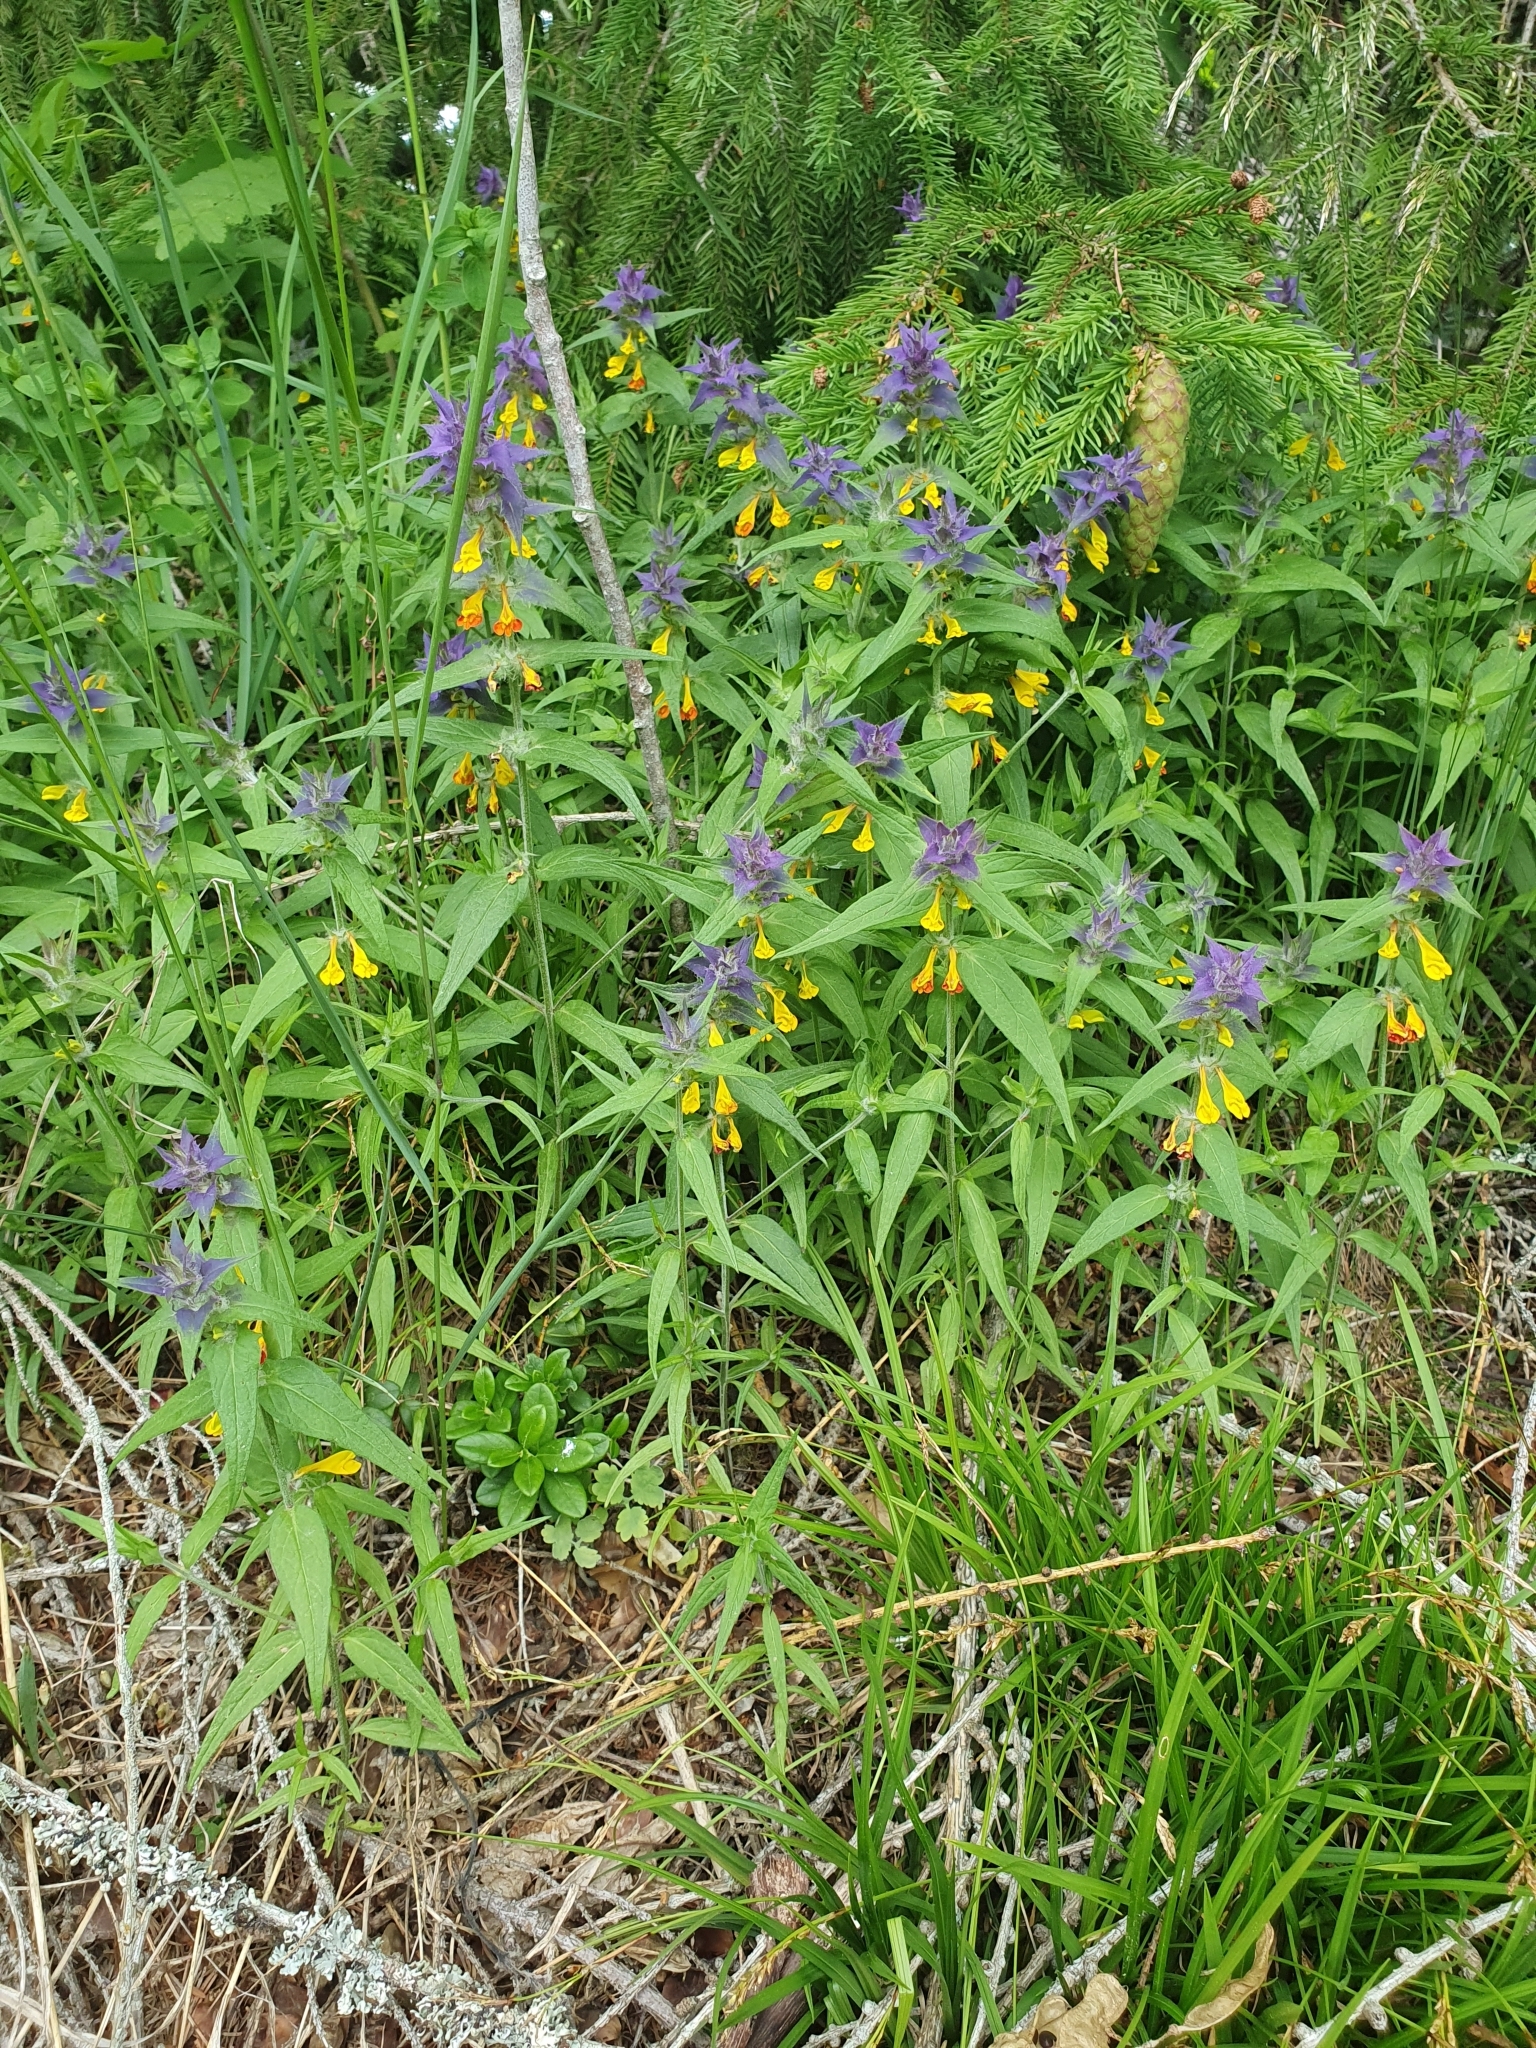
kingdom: Plantae
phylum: Tracheophyta
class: Magnoliopsida
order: Lamiales
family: Orobanchaceae
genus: Melampyrum
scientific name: Melampyrum nemorosum
